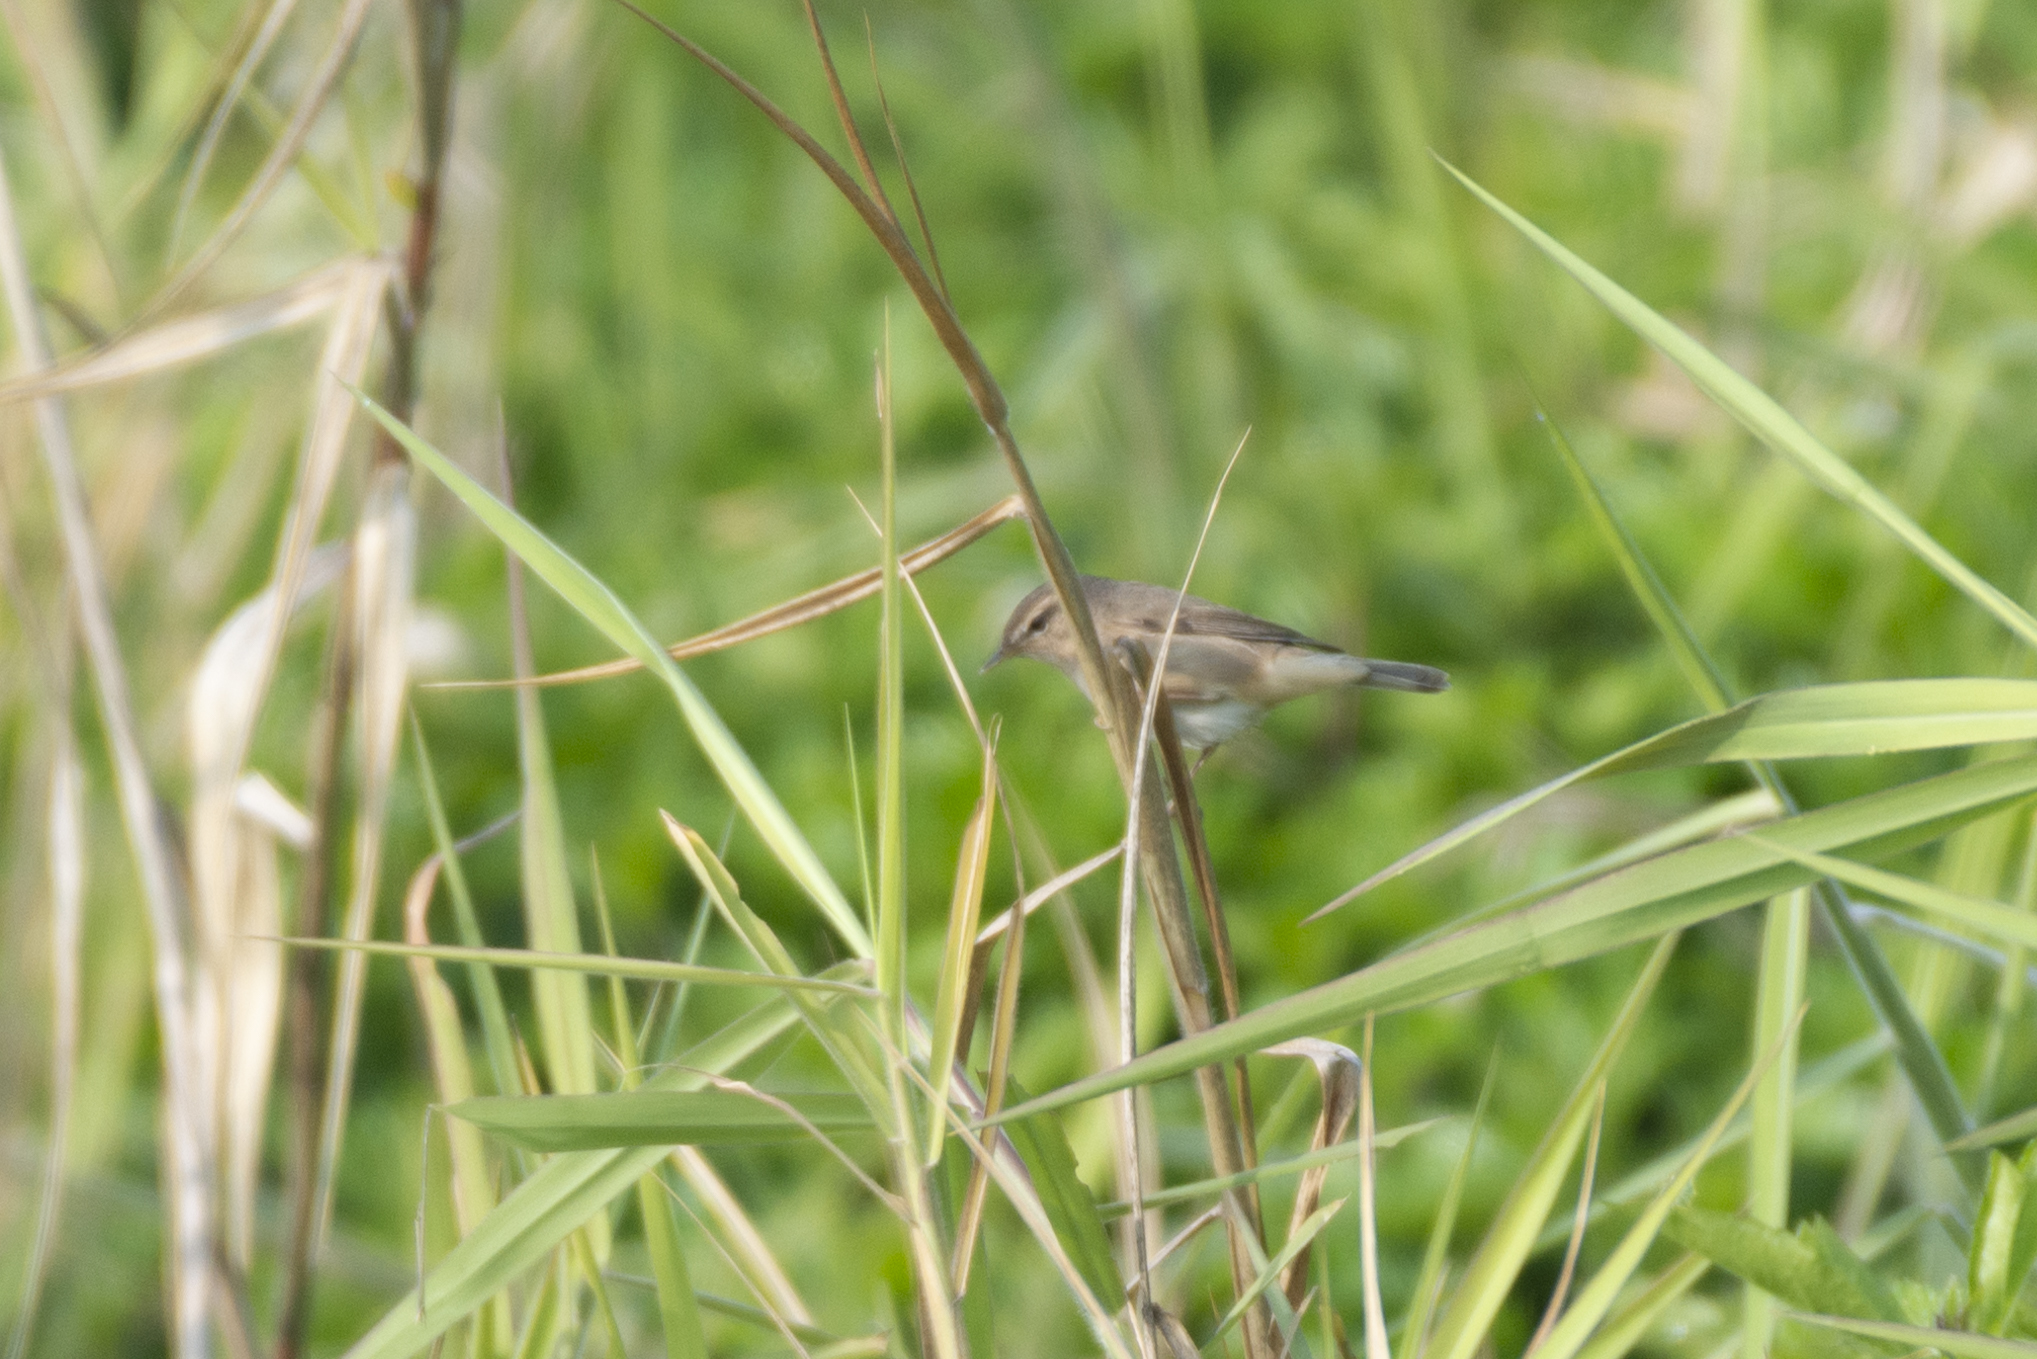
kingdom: Animalia
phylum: Chordata
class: Aves
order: Passeriformes
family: Phylloscopidae
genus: Phylloscopus
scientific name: Phylloscopus fuscatus
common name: Dusky warbler
